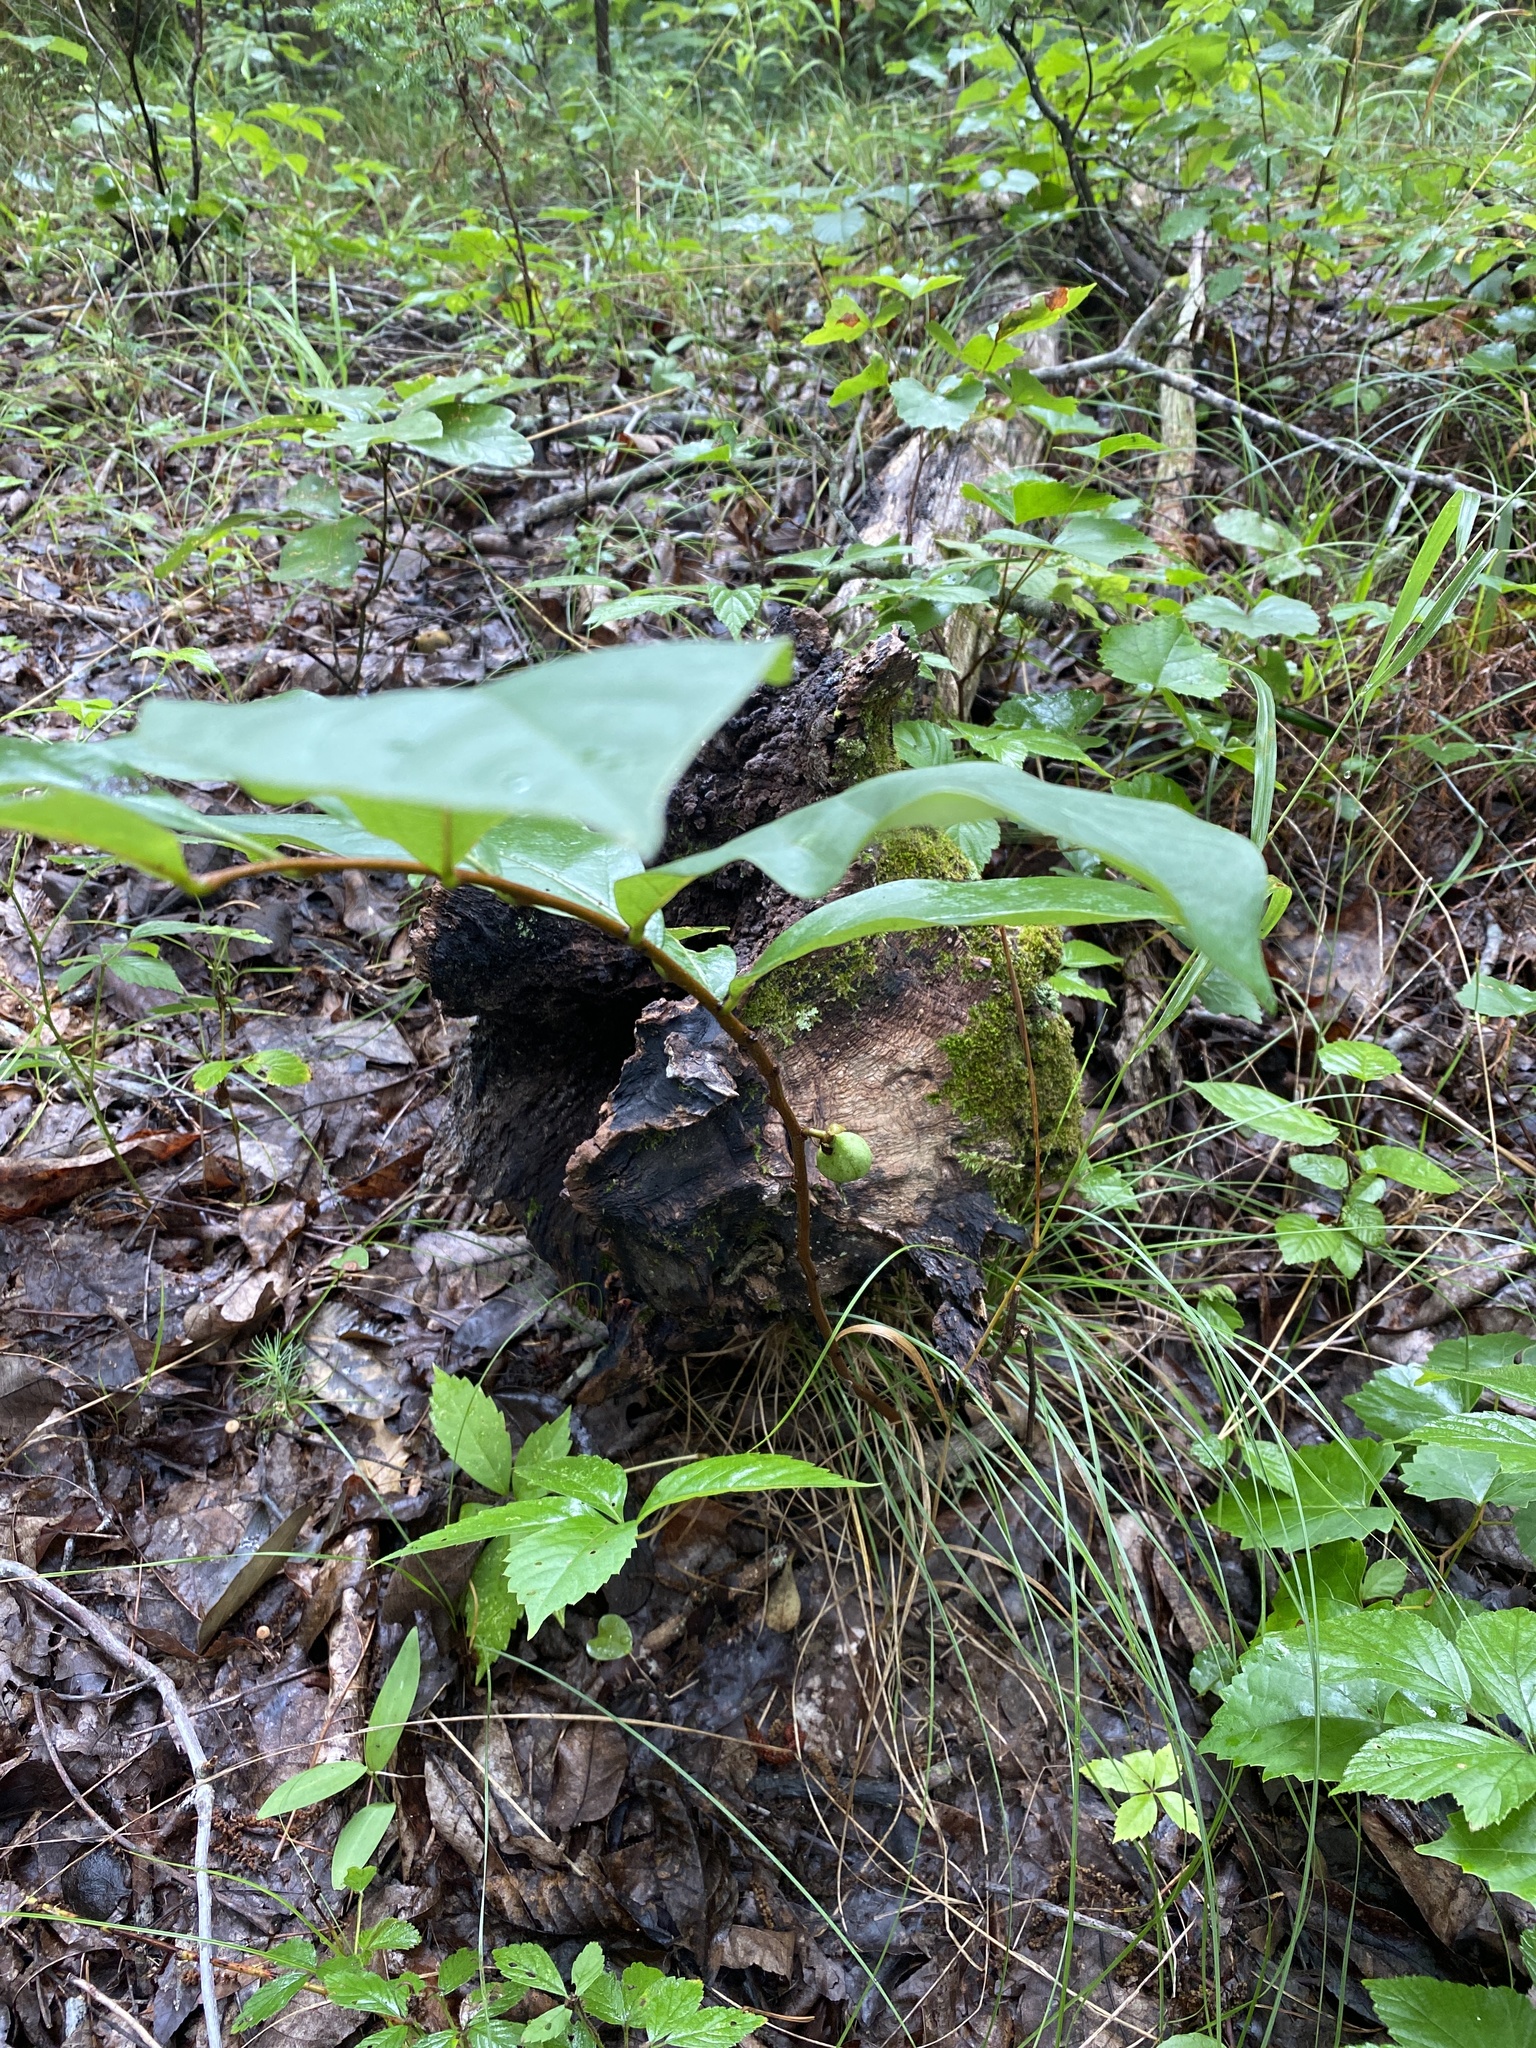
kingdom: Plantae
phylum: Tracheophyta
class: Magnoliopsida
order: Magnoliales
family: Annonaceae
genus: Asimina
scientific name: Asimina parviflora
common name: Dwarf pawpaw
